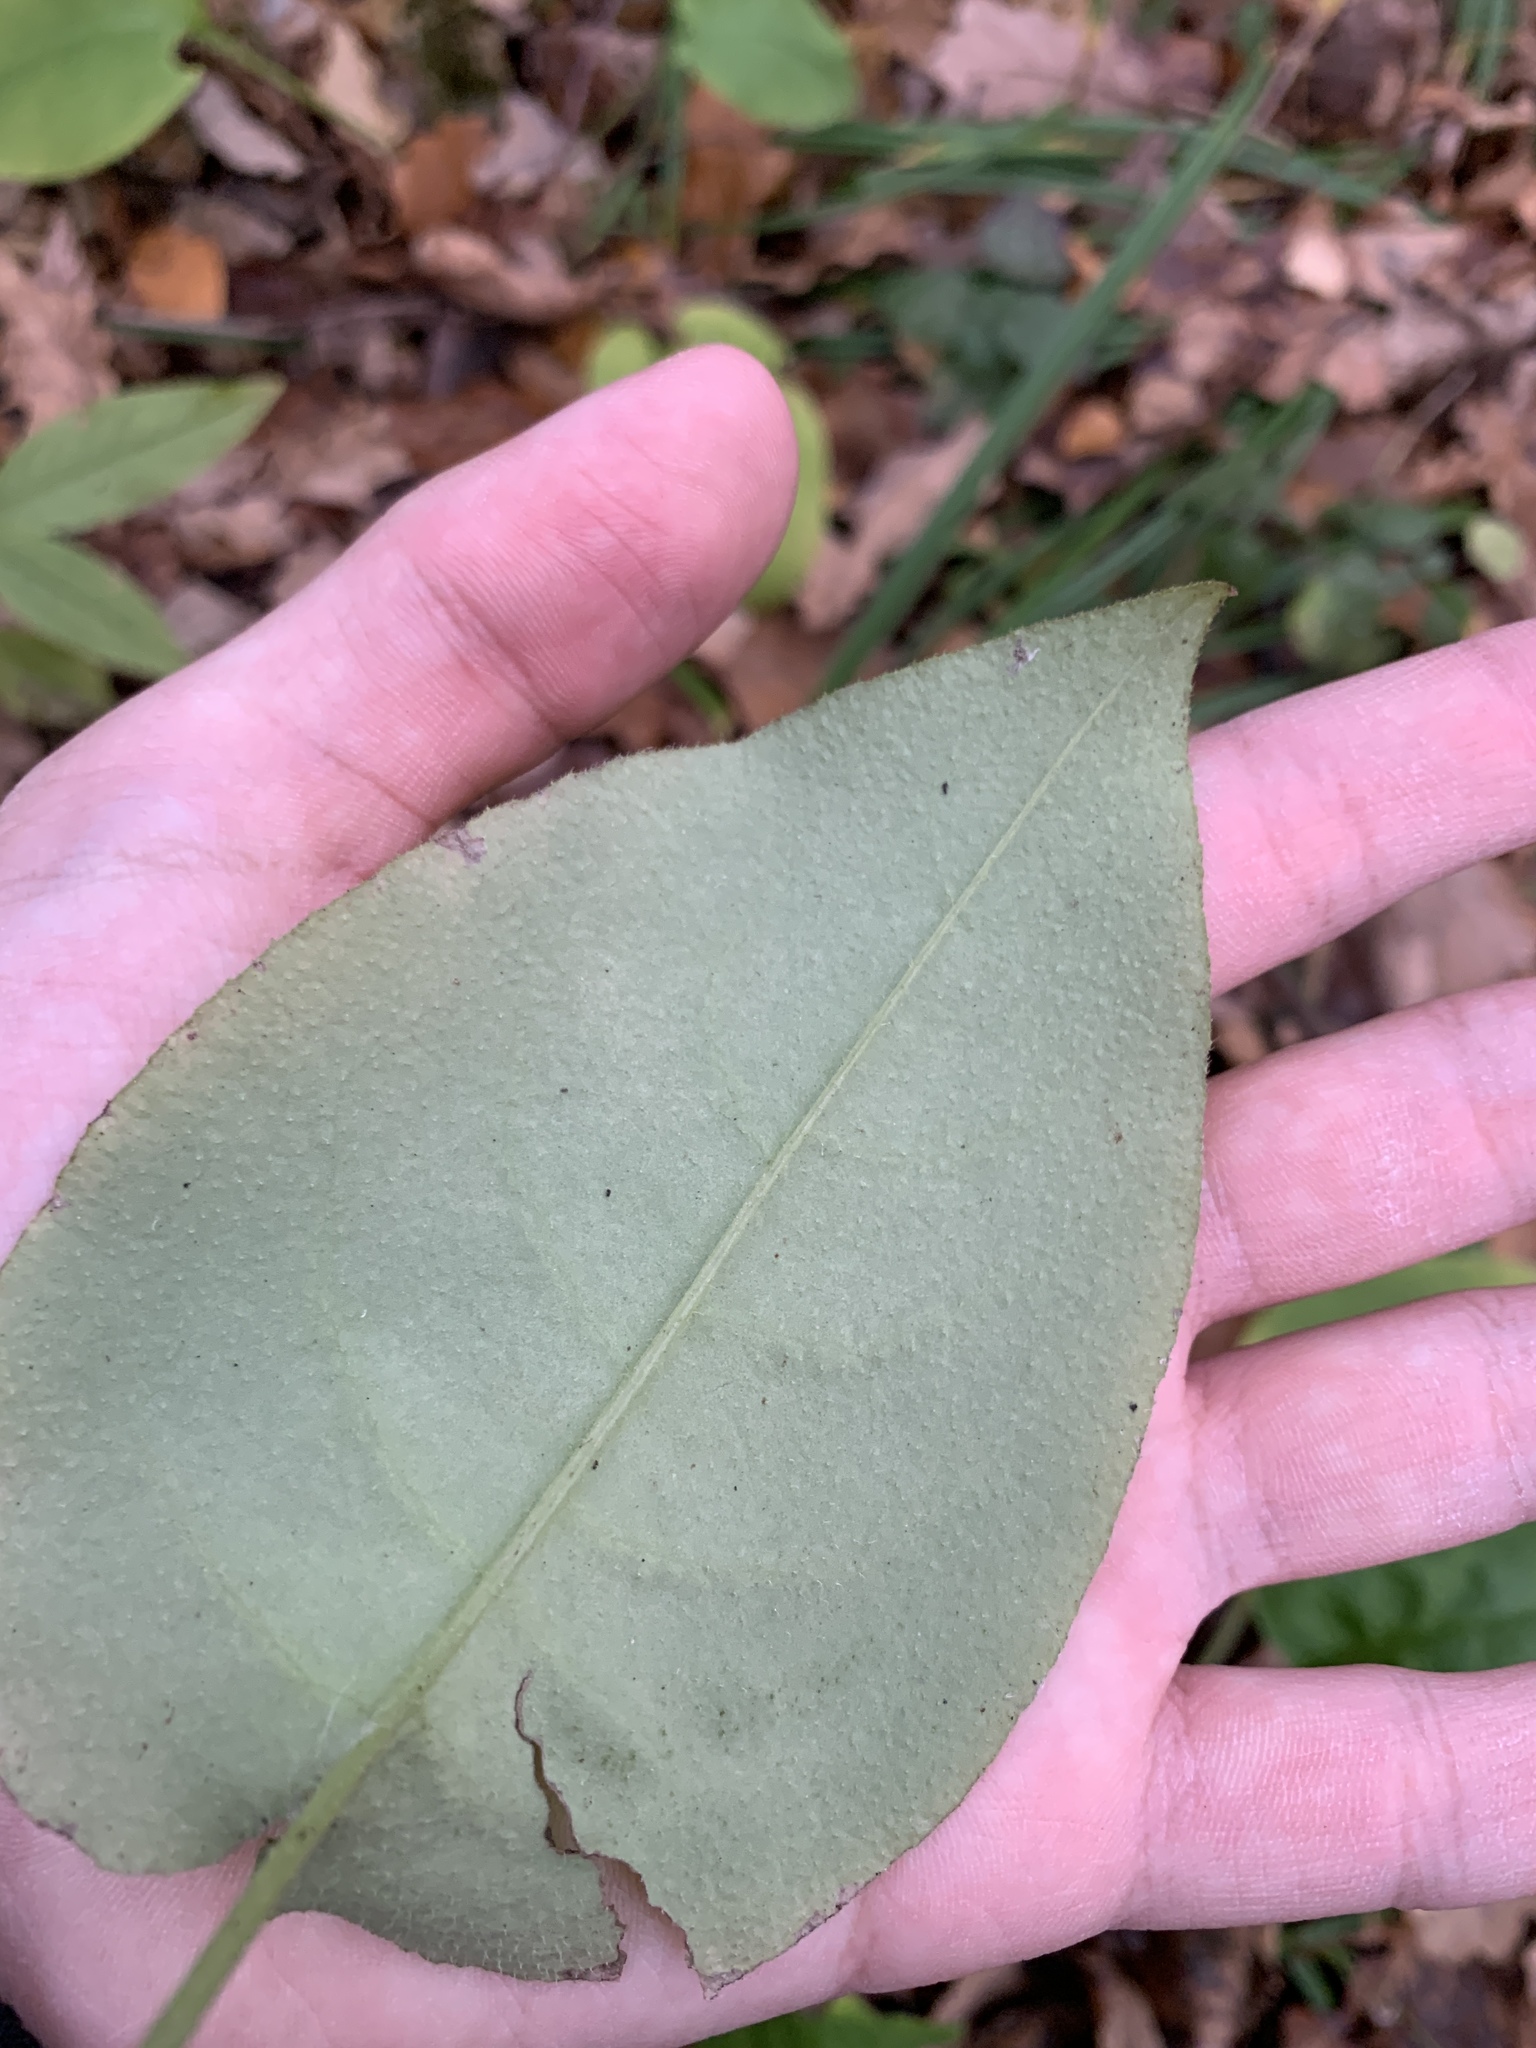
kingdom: Plantae
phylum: Tracheophyta
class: Magnoliopsida
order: Boraginales
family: Boraginaceae
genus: Pulmonaria
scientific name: Pulmonaria obscura
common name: Suffolk lungwort
